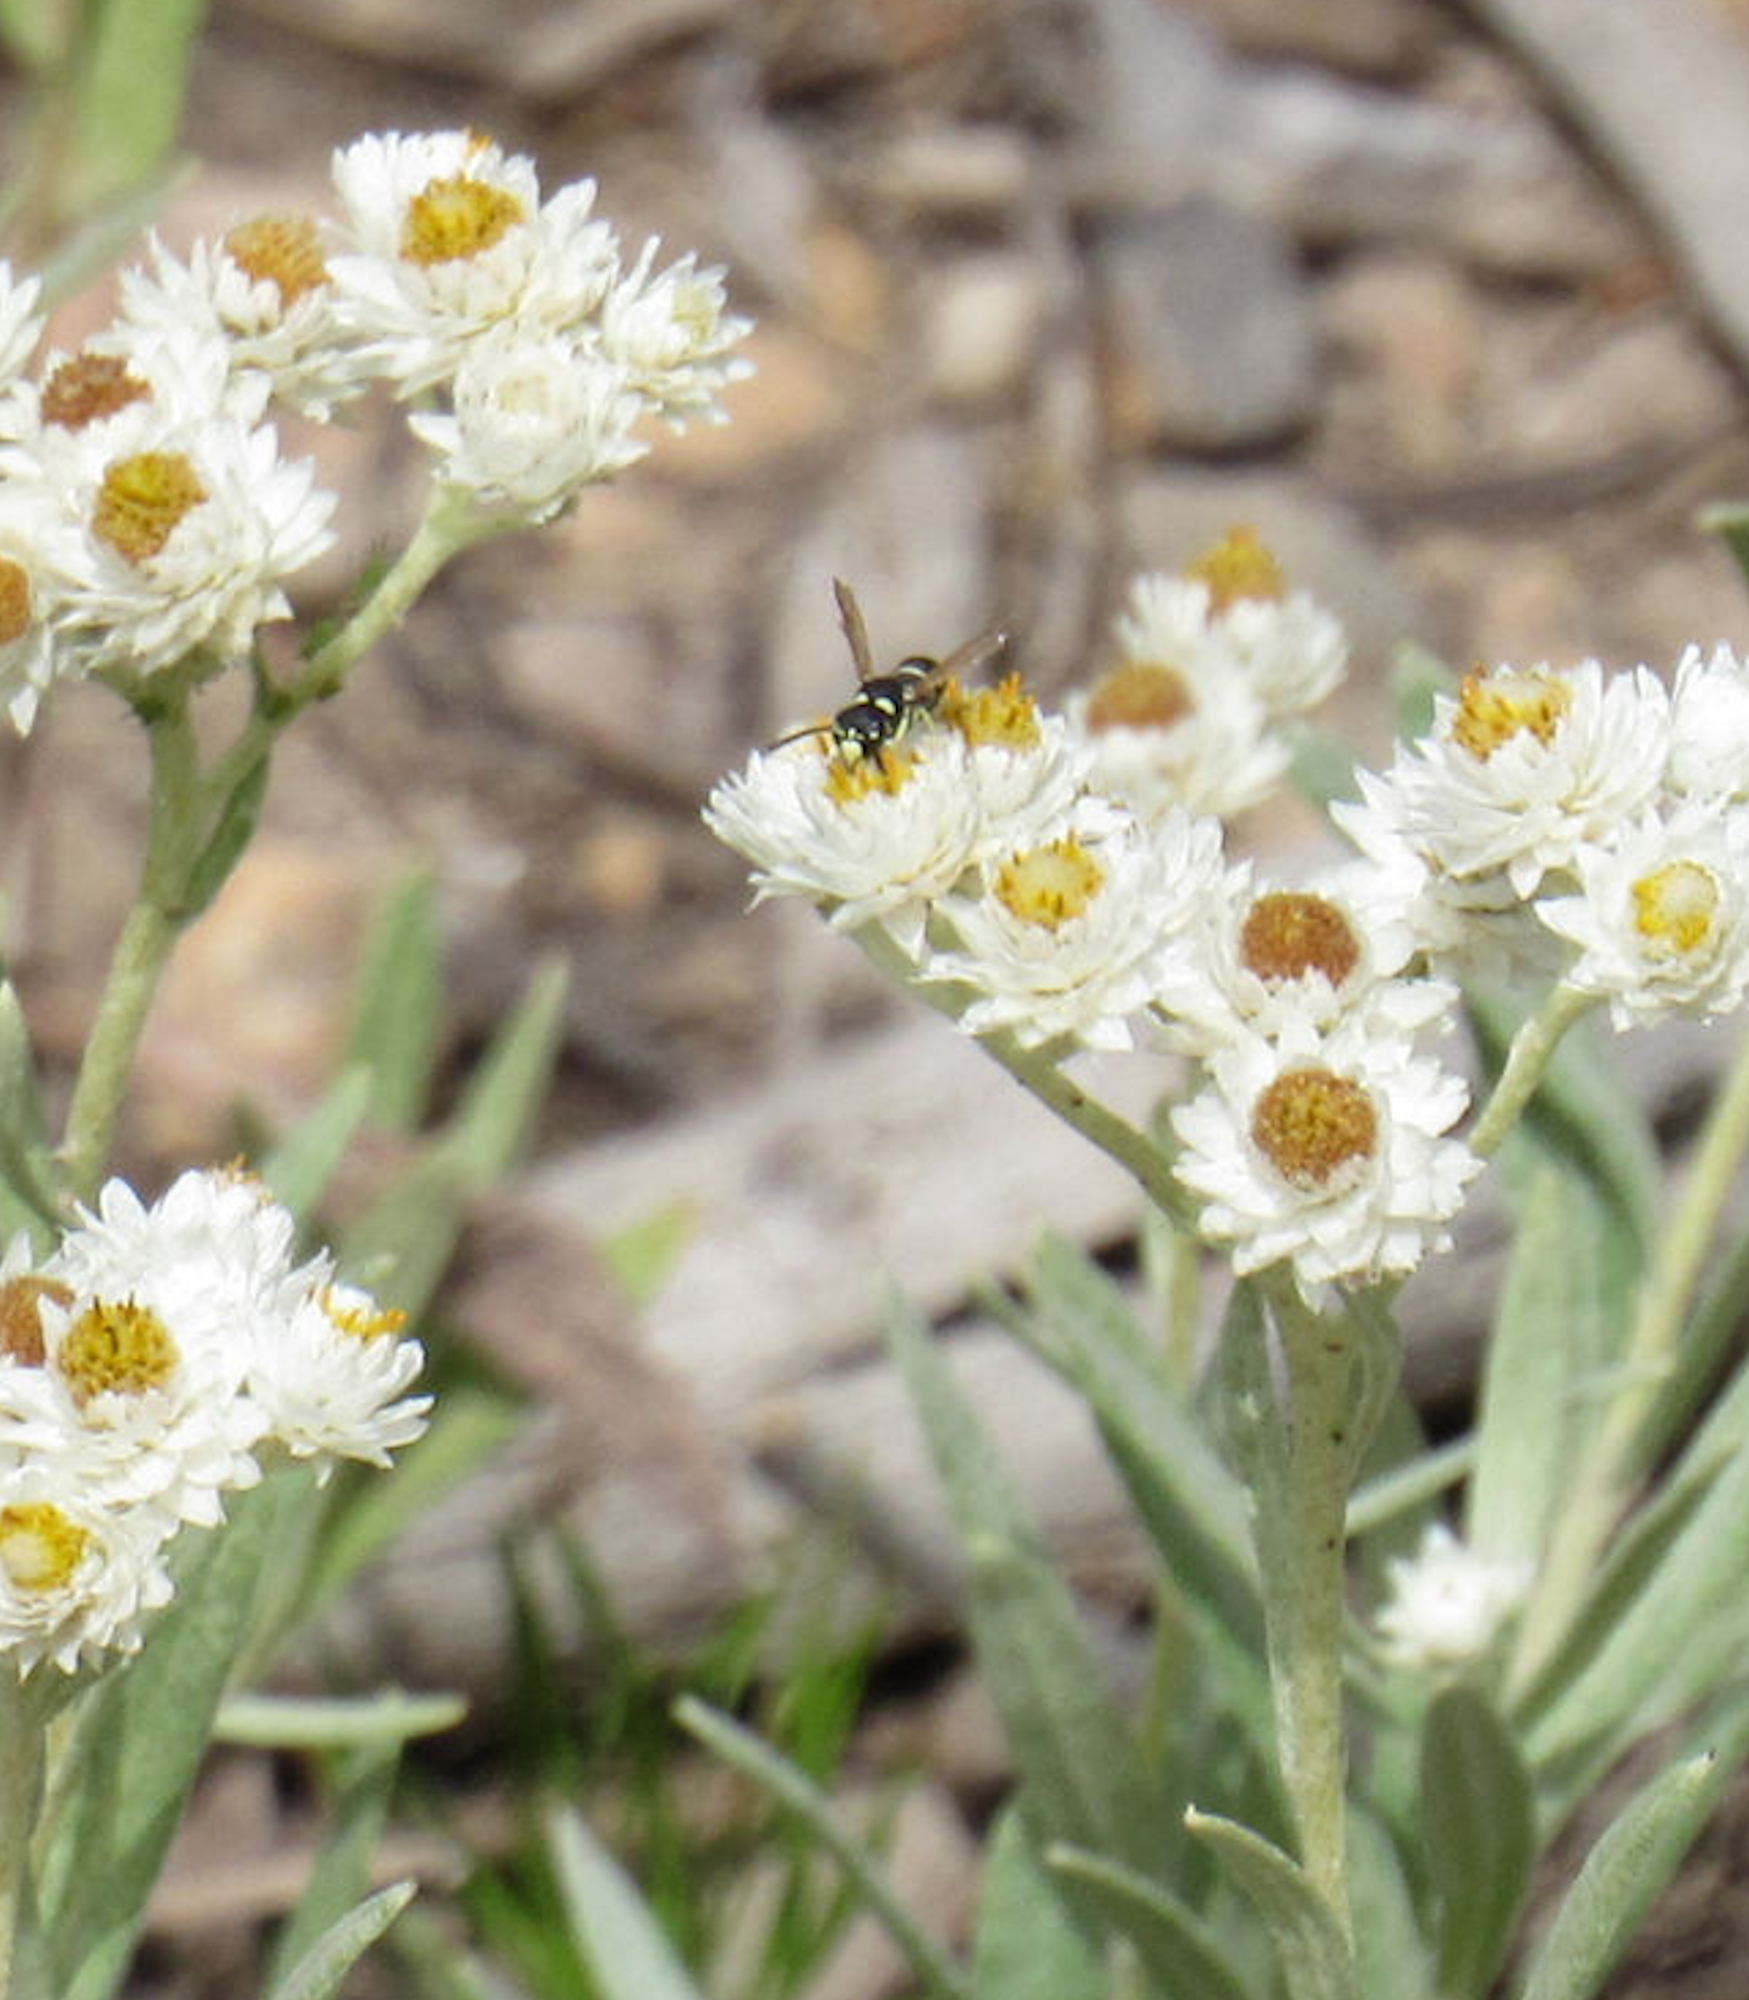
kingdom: Animalia
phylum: Arthropoda
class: Insecta
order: Hymenoptera
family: Eumenidae
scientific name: Eumenidae
